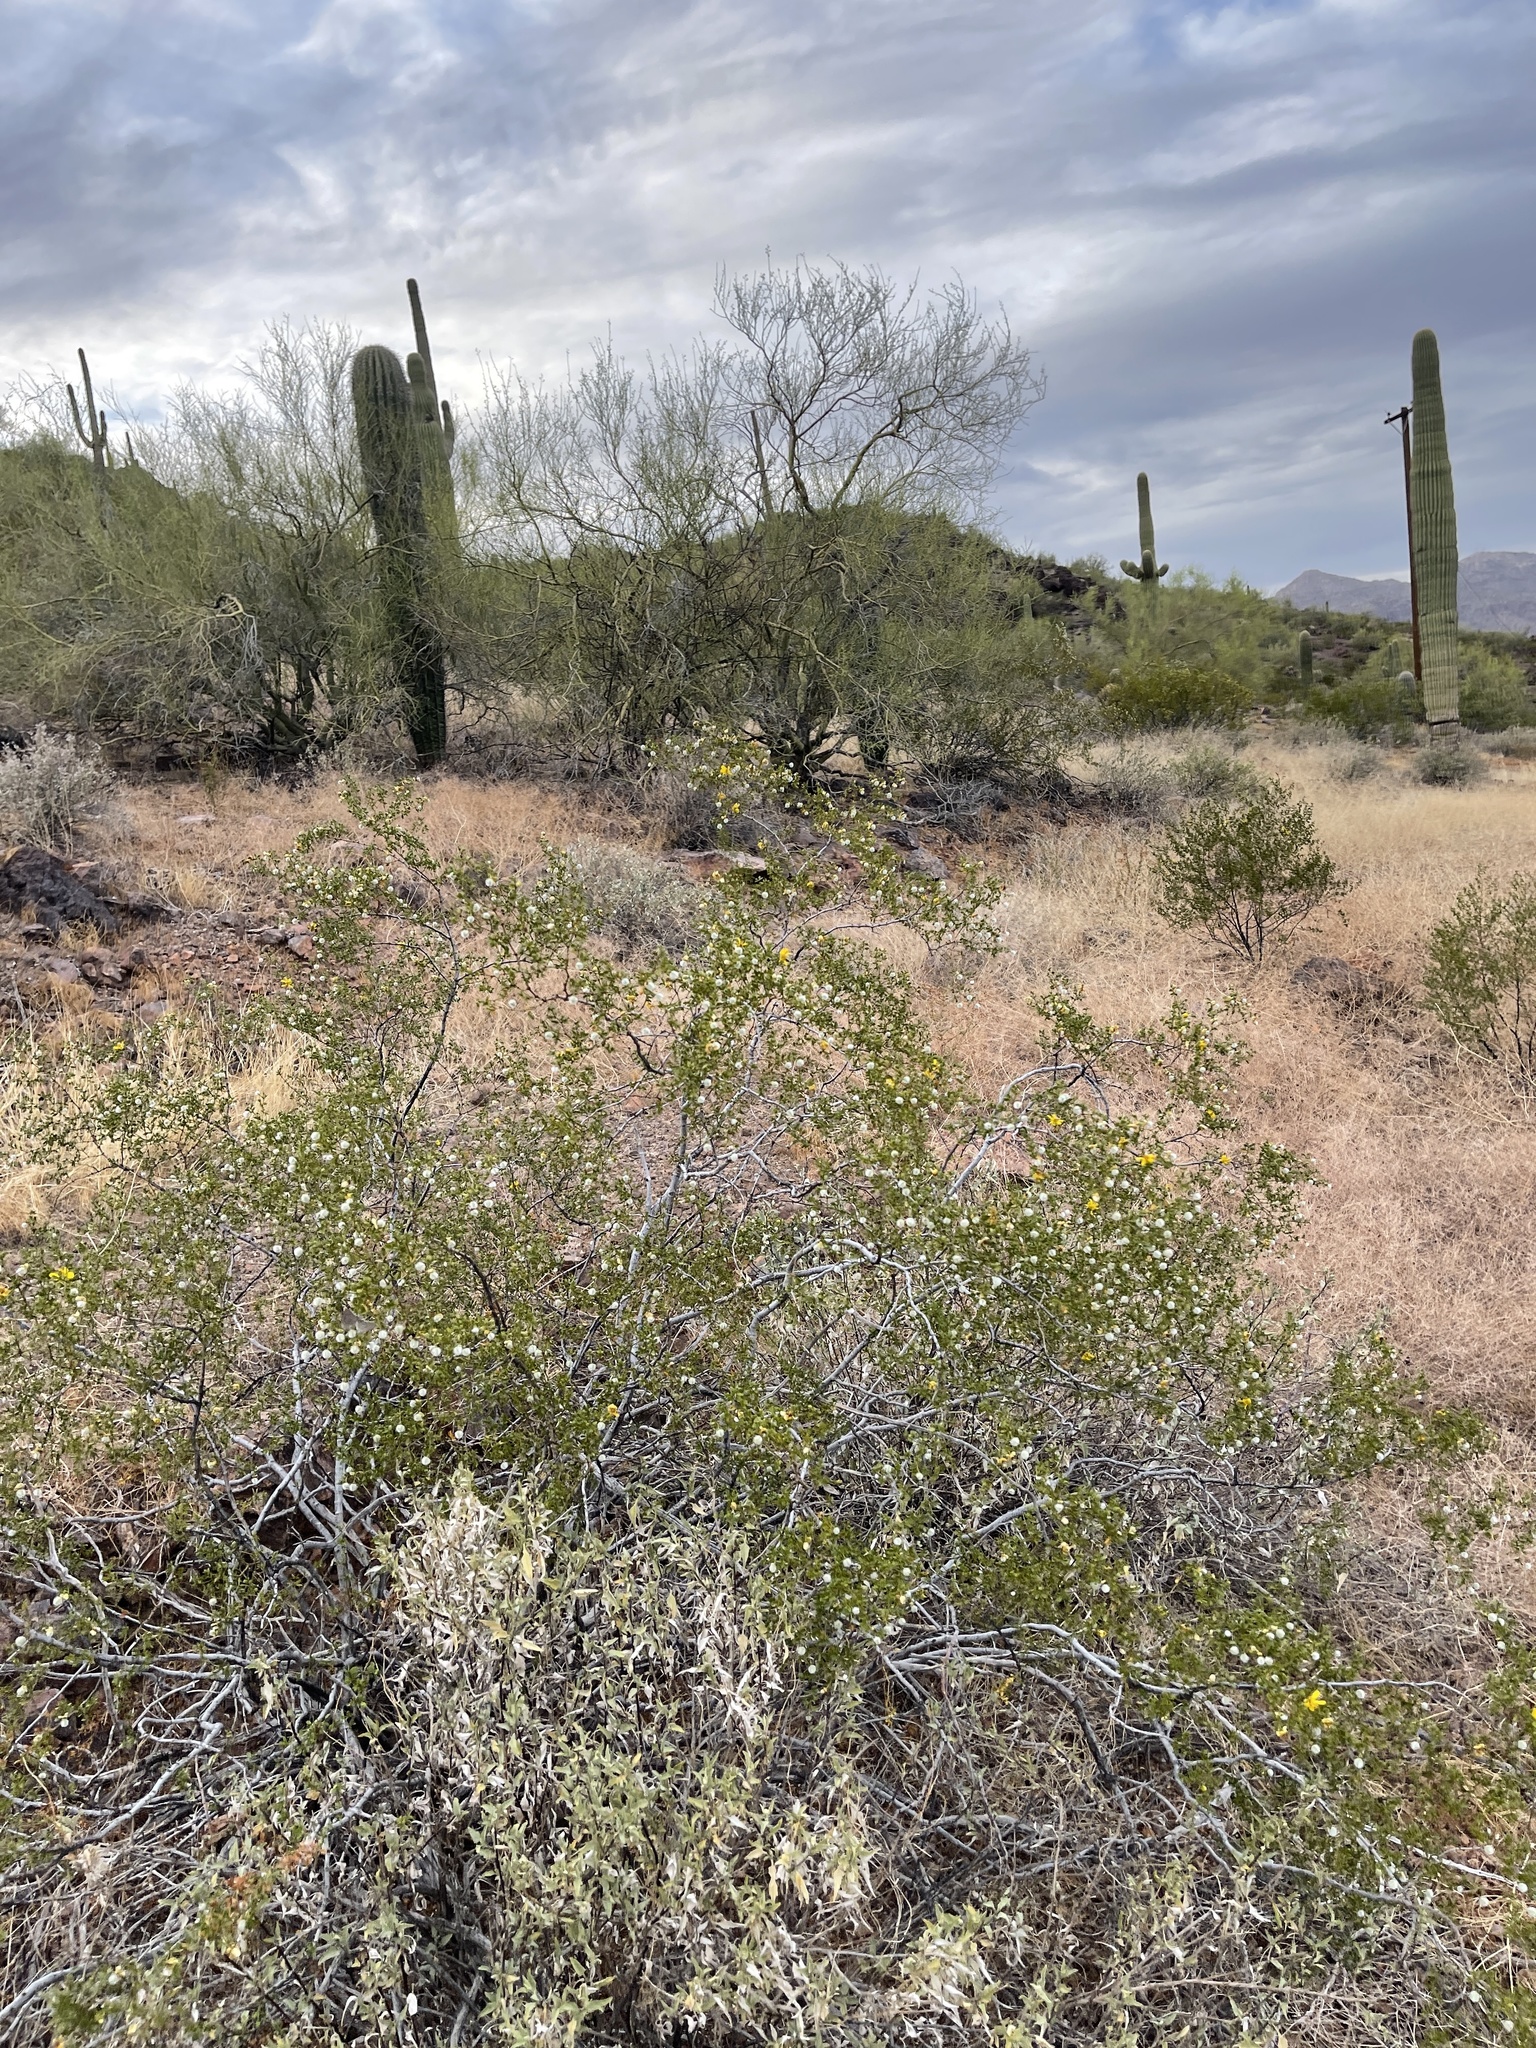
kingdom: Plantae
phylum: Tracheophyta
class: Magnoliopsida
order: Zygophyllales
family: Zygophyllaceae
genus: Larrea
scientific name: Larrea tridentata
